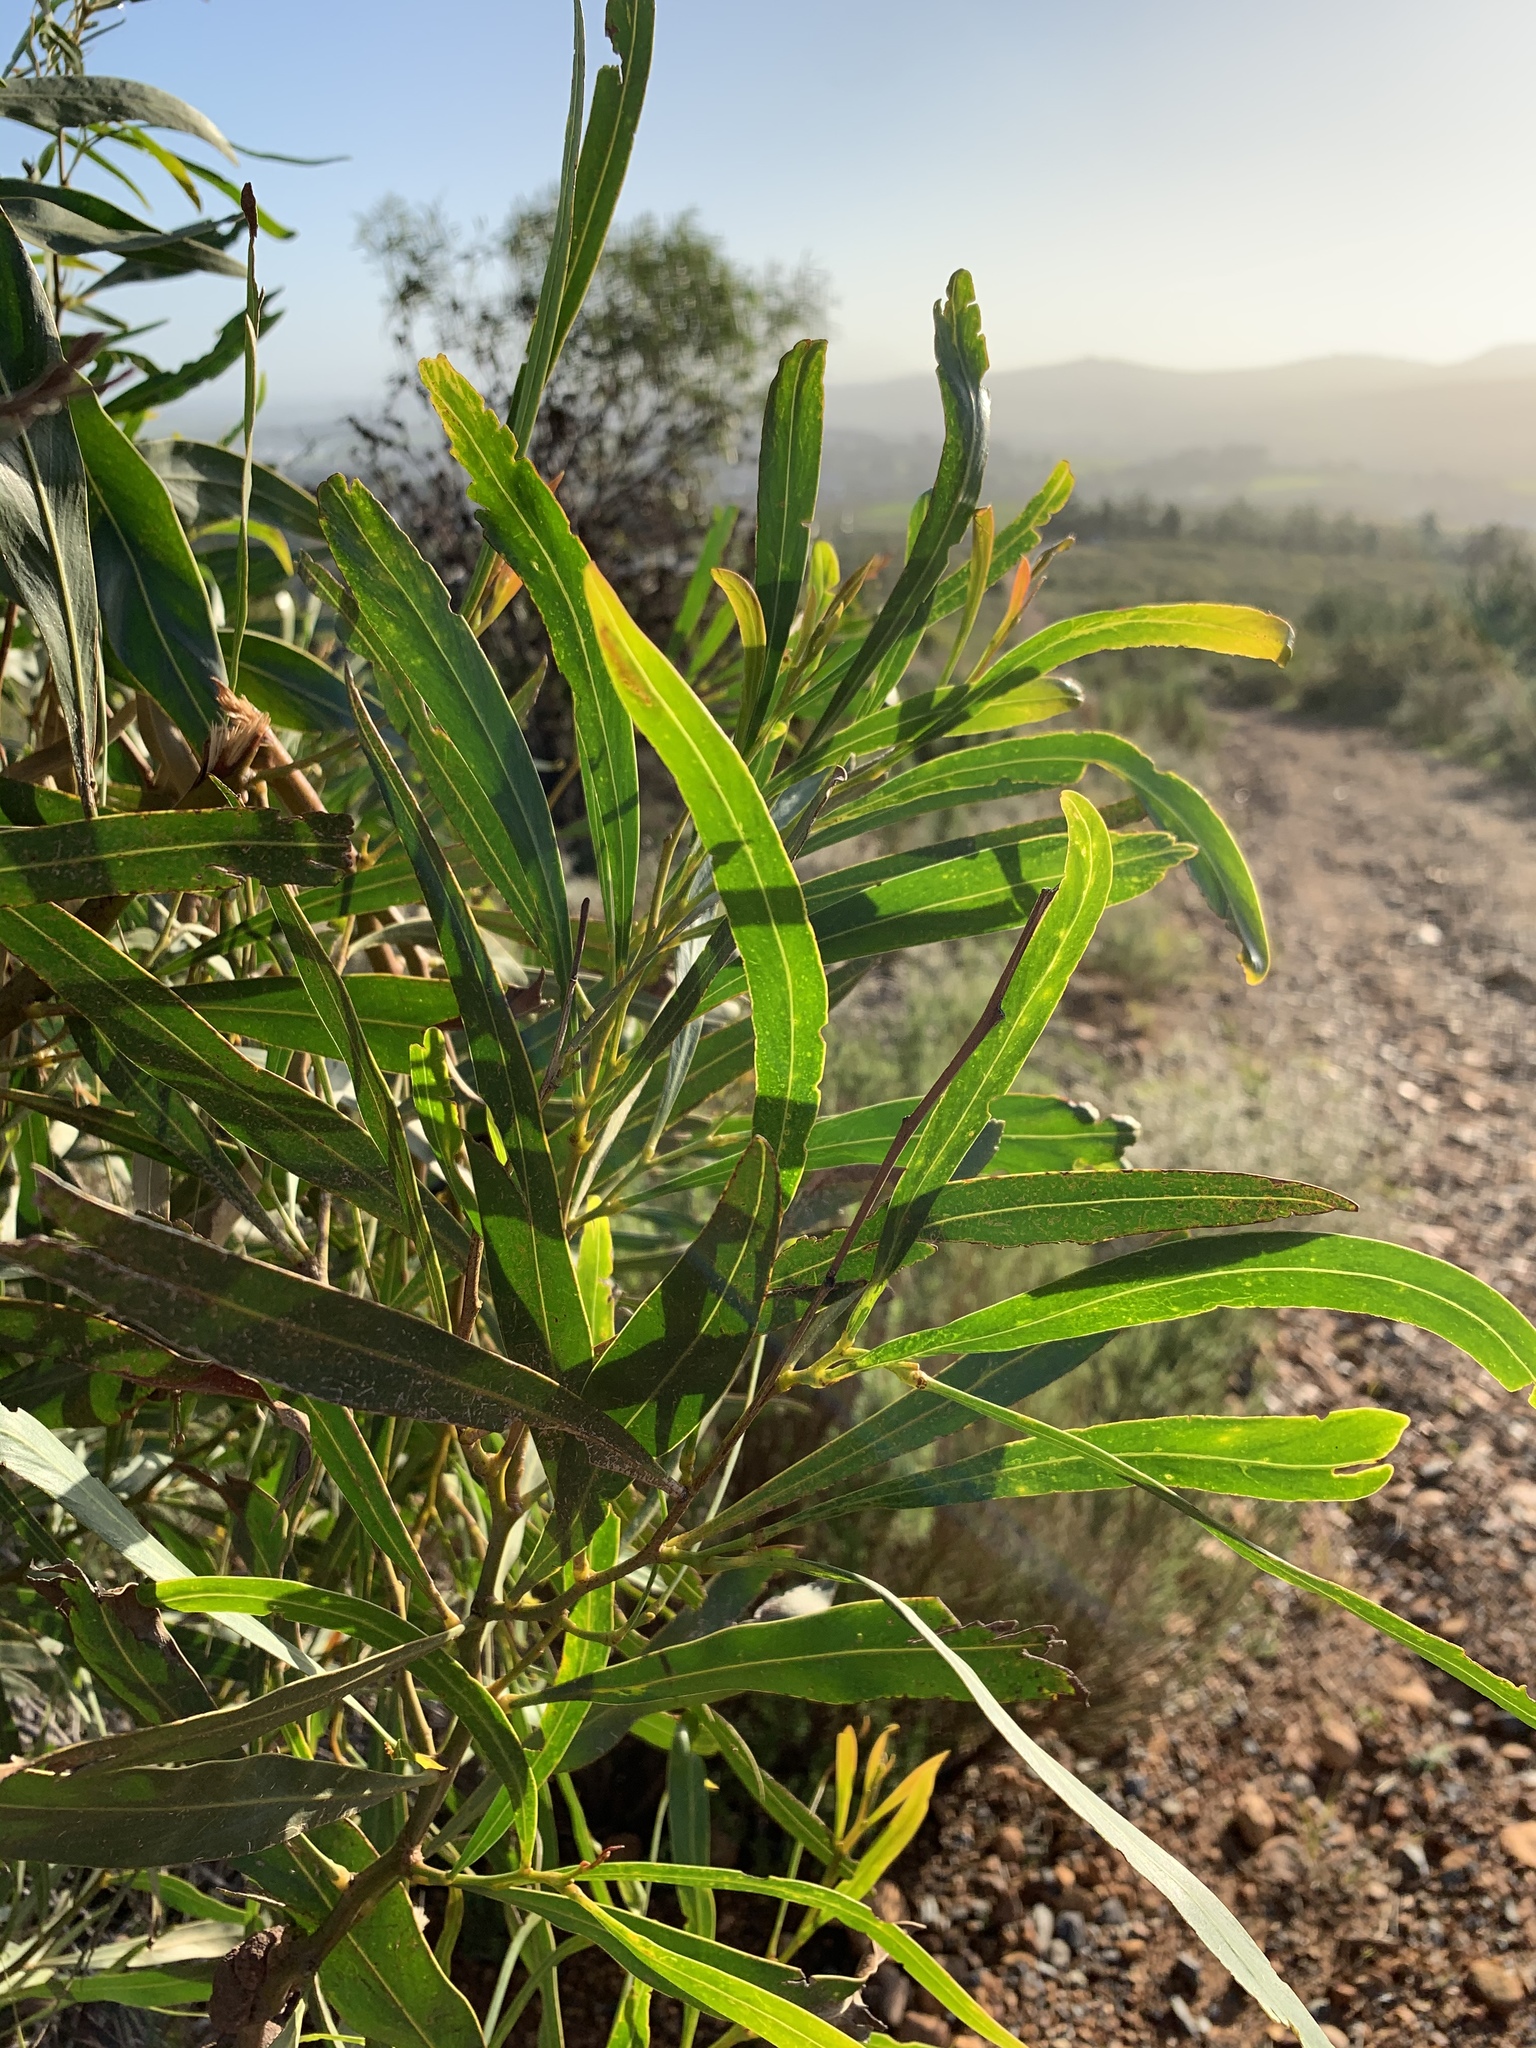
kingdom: Plantae
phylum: Tracheophyta
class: Magnoliopsida
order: Fabales
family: Fabaceae
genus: Acacia
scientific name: Acacia saligna
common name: Orange wattle
